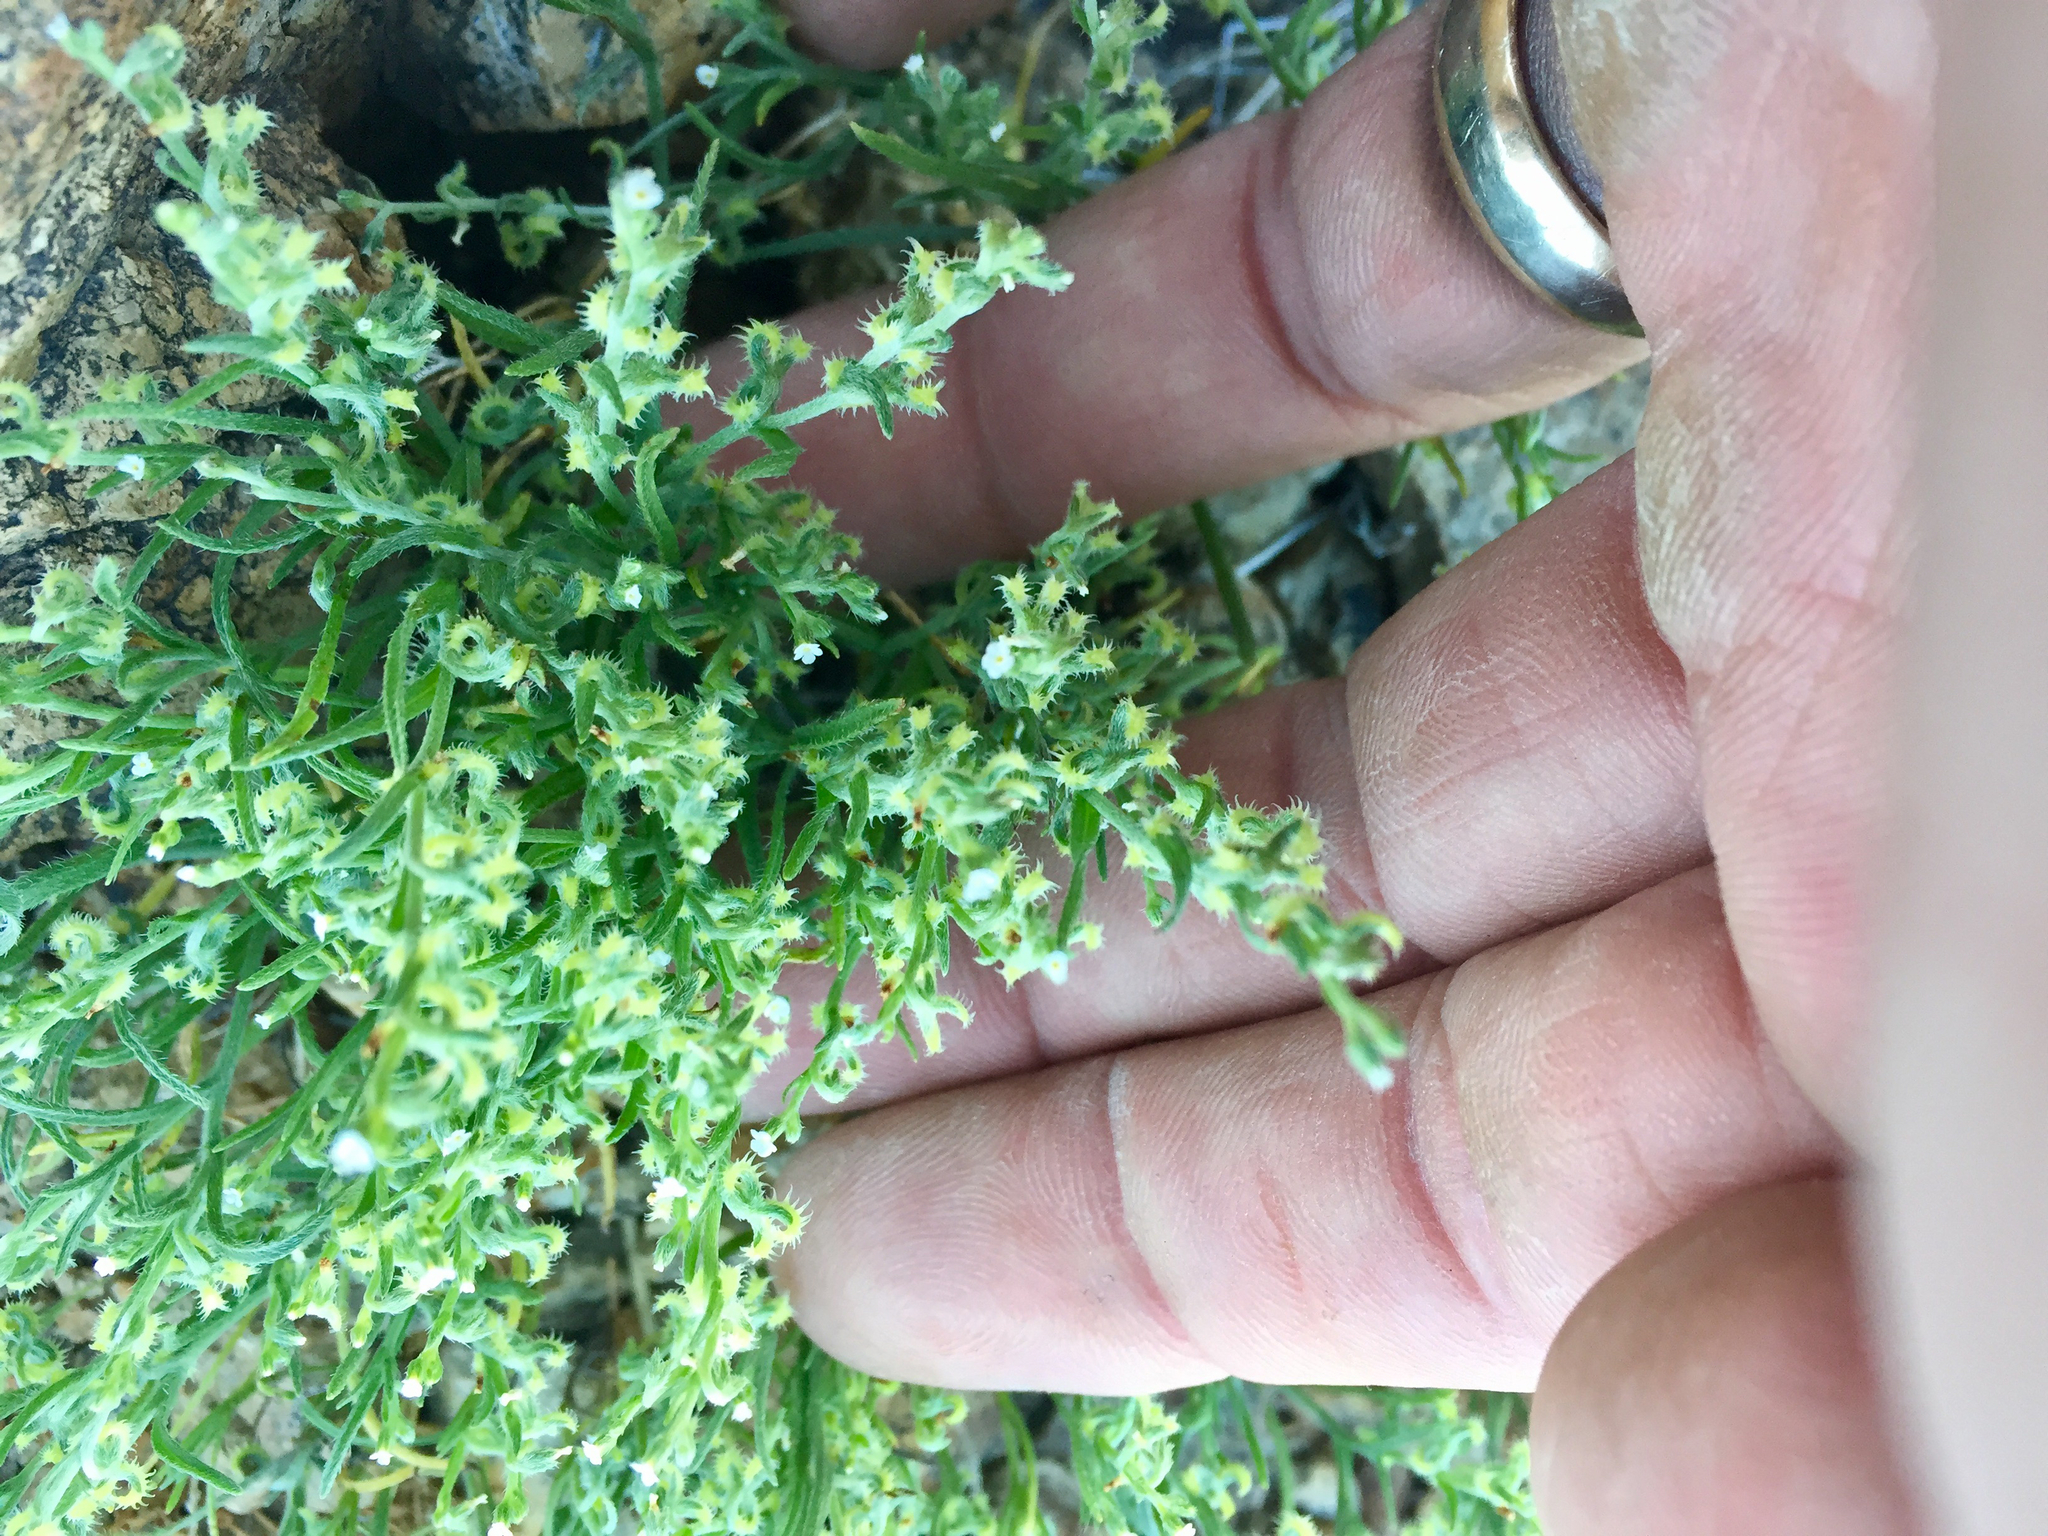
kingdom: Plantae
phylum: Tracheophyta
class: Magnoliopsida
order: Boraginales
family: Boraginaceae
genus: Pectocarya
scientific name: Pectocarya recurvata
